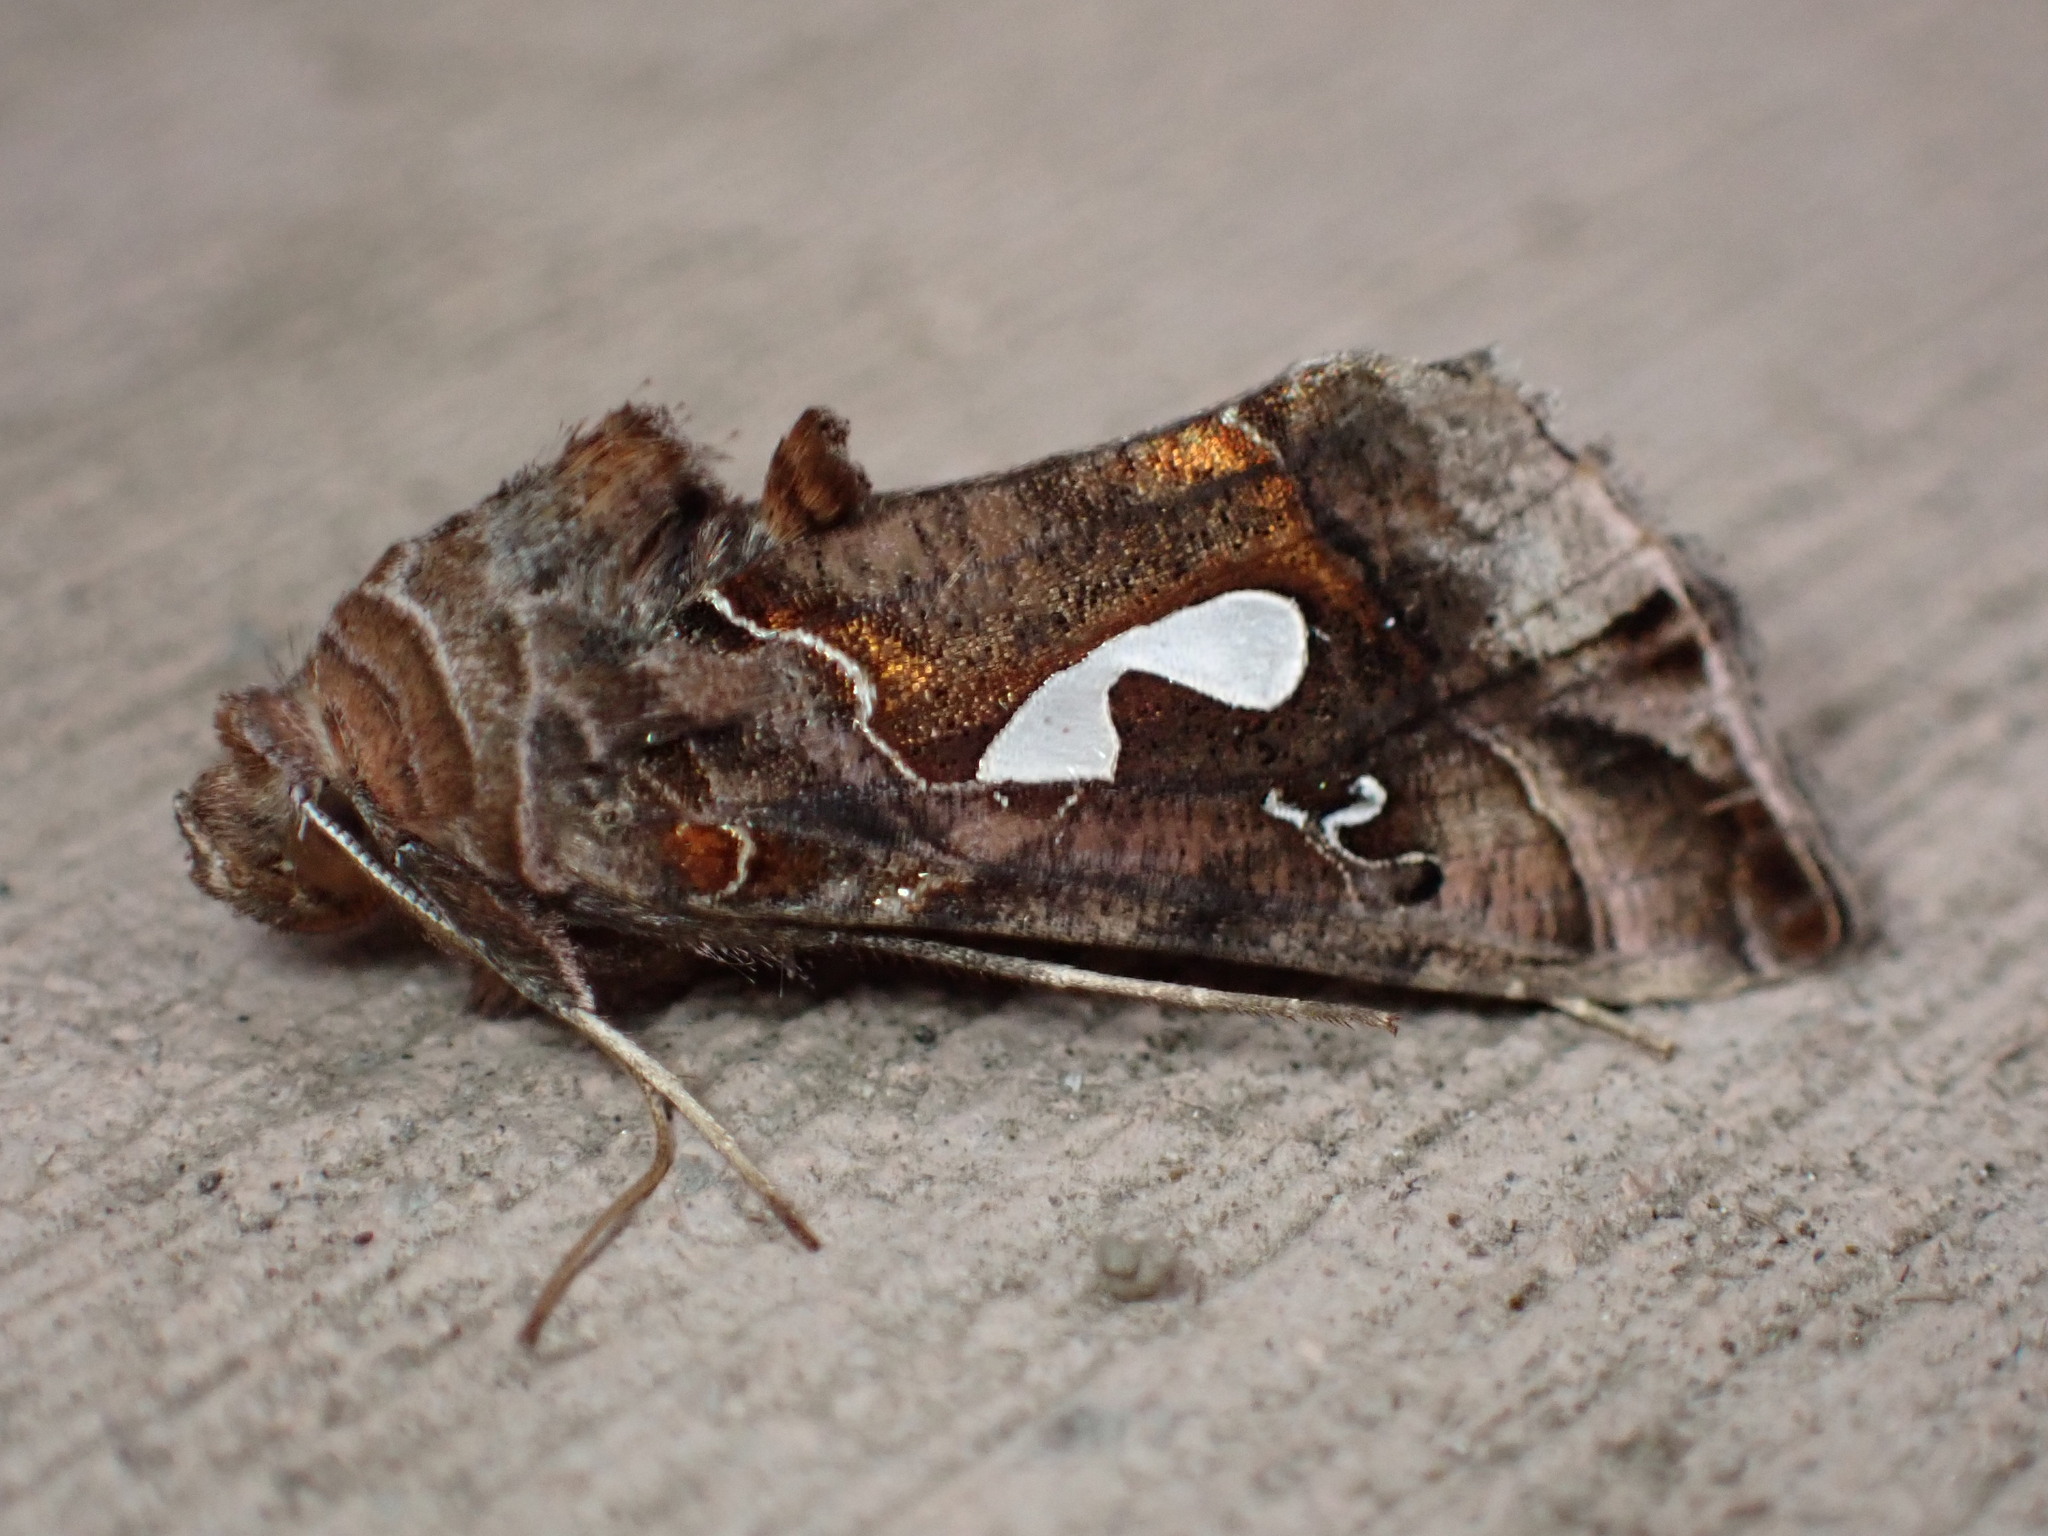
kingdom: Animalia
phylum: Arthropoda
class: Insecta
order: Lepidoptera
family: Noctuidae
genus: Megalographa
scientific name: Megalographa biloba
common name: Cutworm
